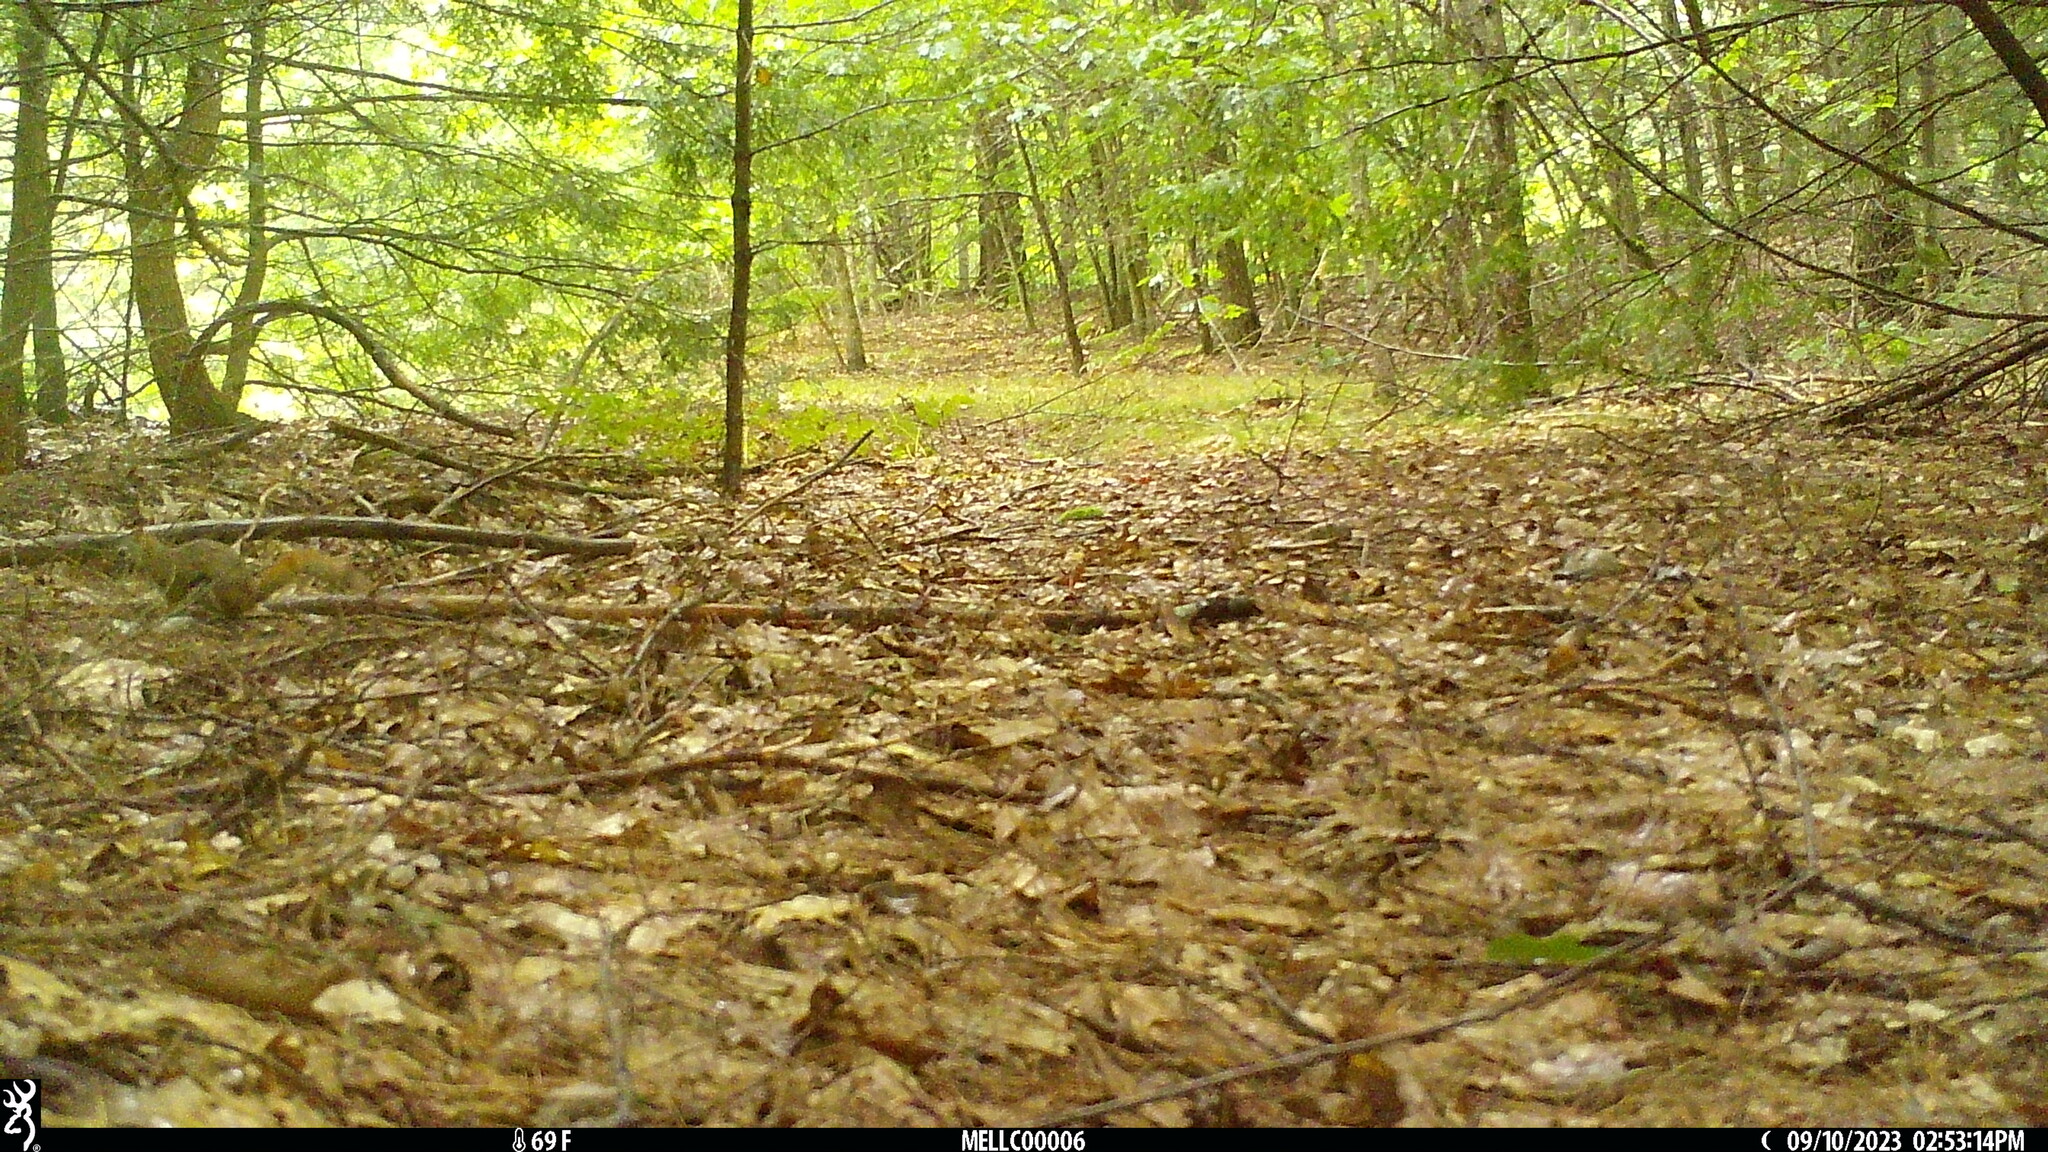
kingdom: Animalia
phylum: Chordata
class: Mammalia
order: Rodentia
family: Sciuridae
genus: Tamiasciurus
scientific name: Tamiasciurus hudsonicus
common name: Red squirrel
